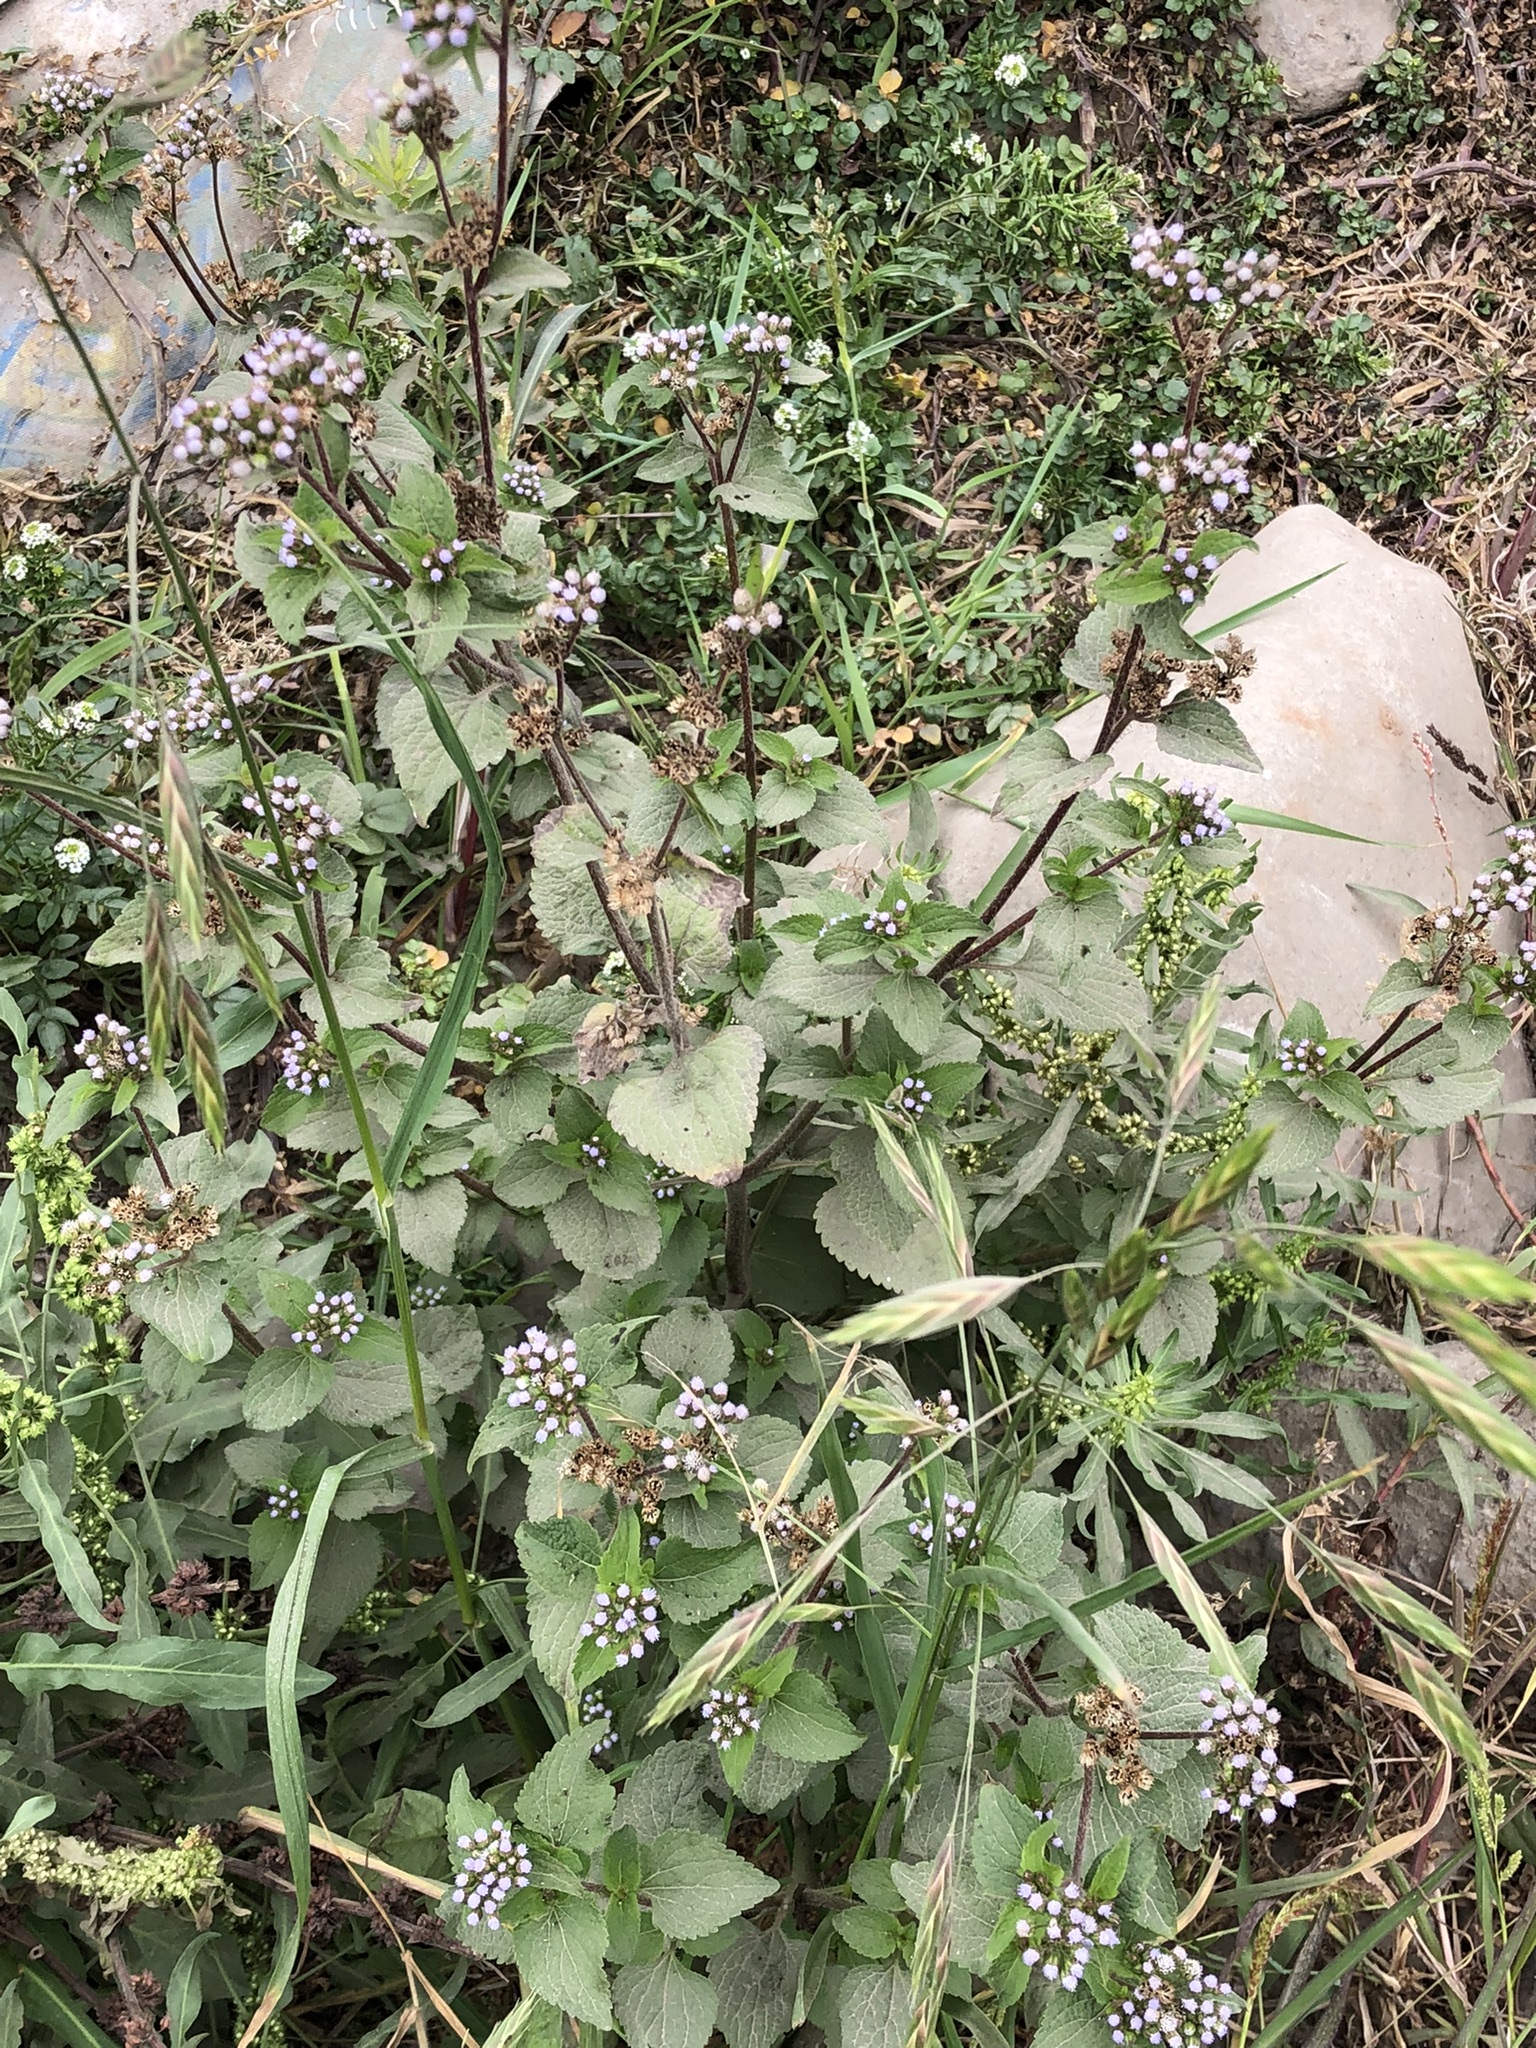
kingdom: Plantae
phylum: Tracheophyta
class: Magnoliopsida
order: Asterales
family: Asteraceae
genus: Ageratum
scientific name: Ageratum conyzoides
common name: Tropical whiteweed
